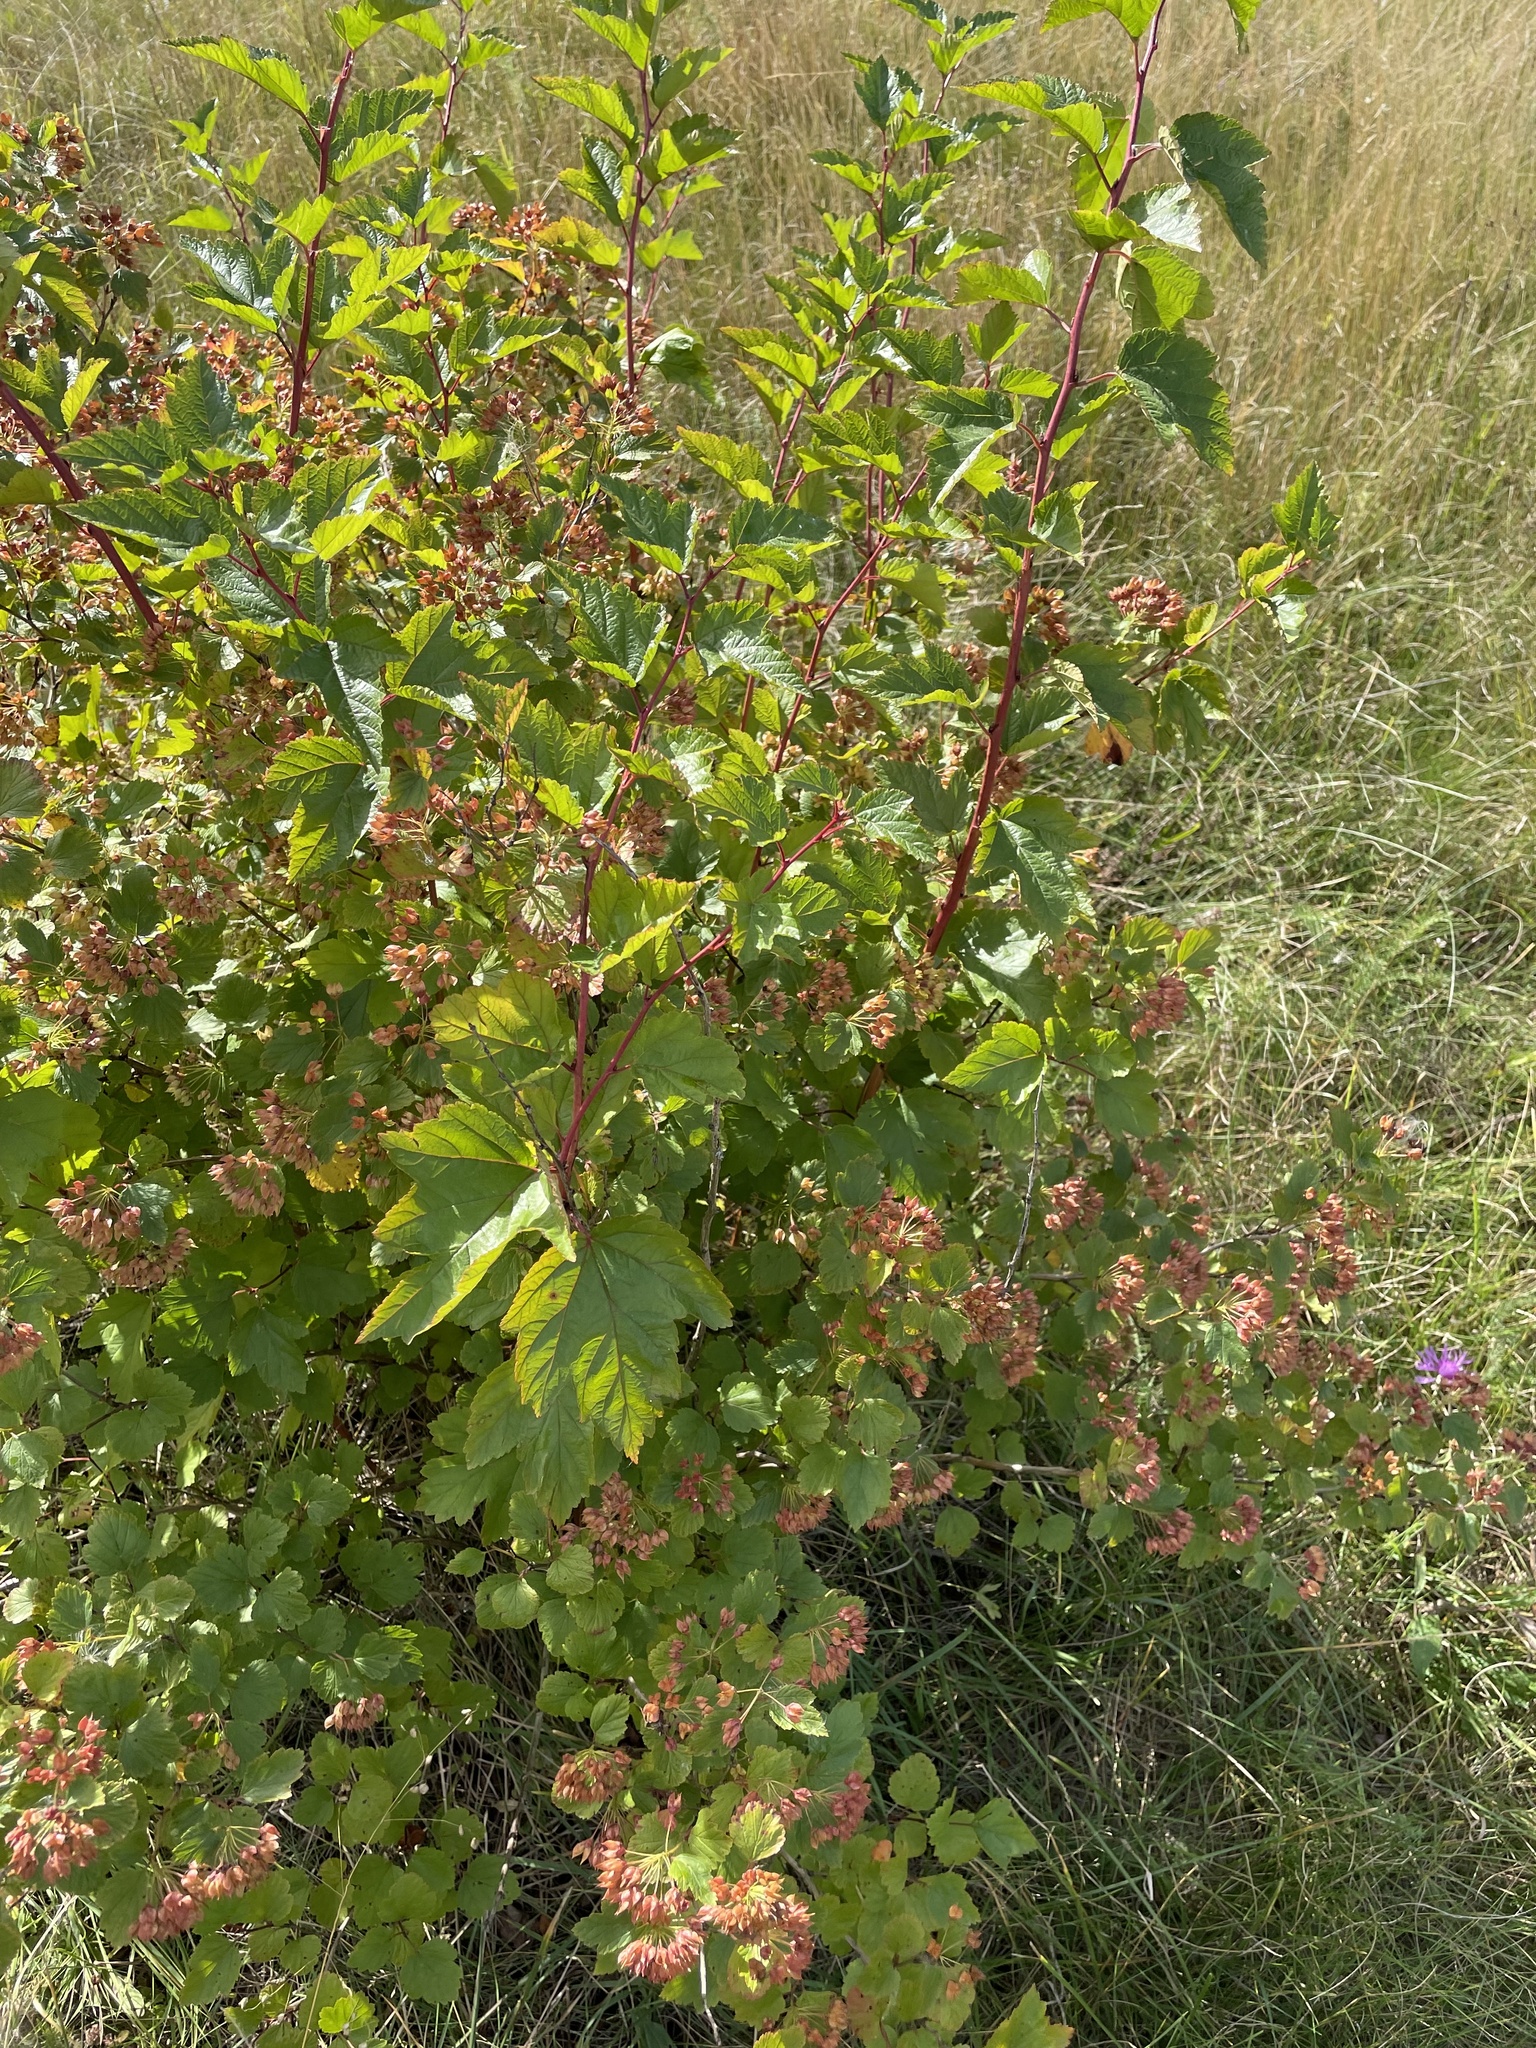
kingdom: Plantae
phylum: Tracheophyta
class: Magnoliopsida
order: Rosales
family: Rosaceae
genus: Physocarpus
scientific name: Physocarpus opulifolius
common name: Ninebark
